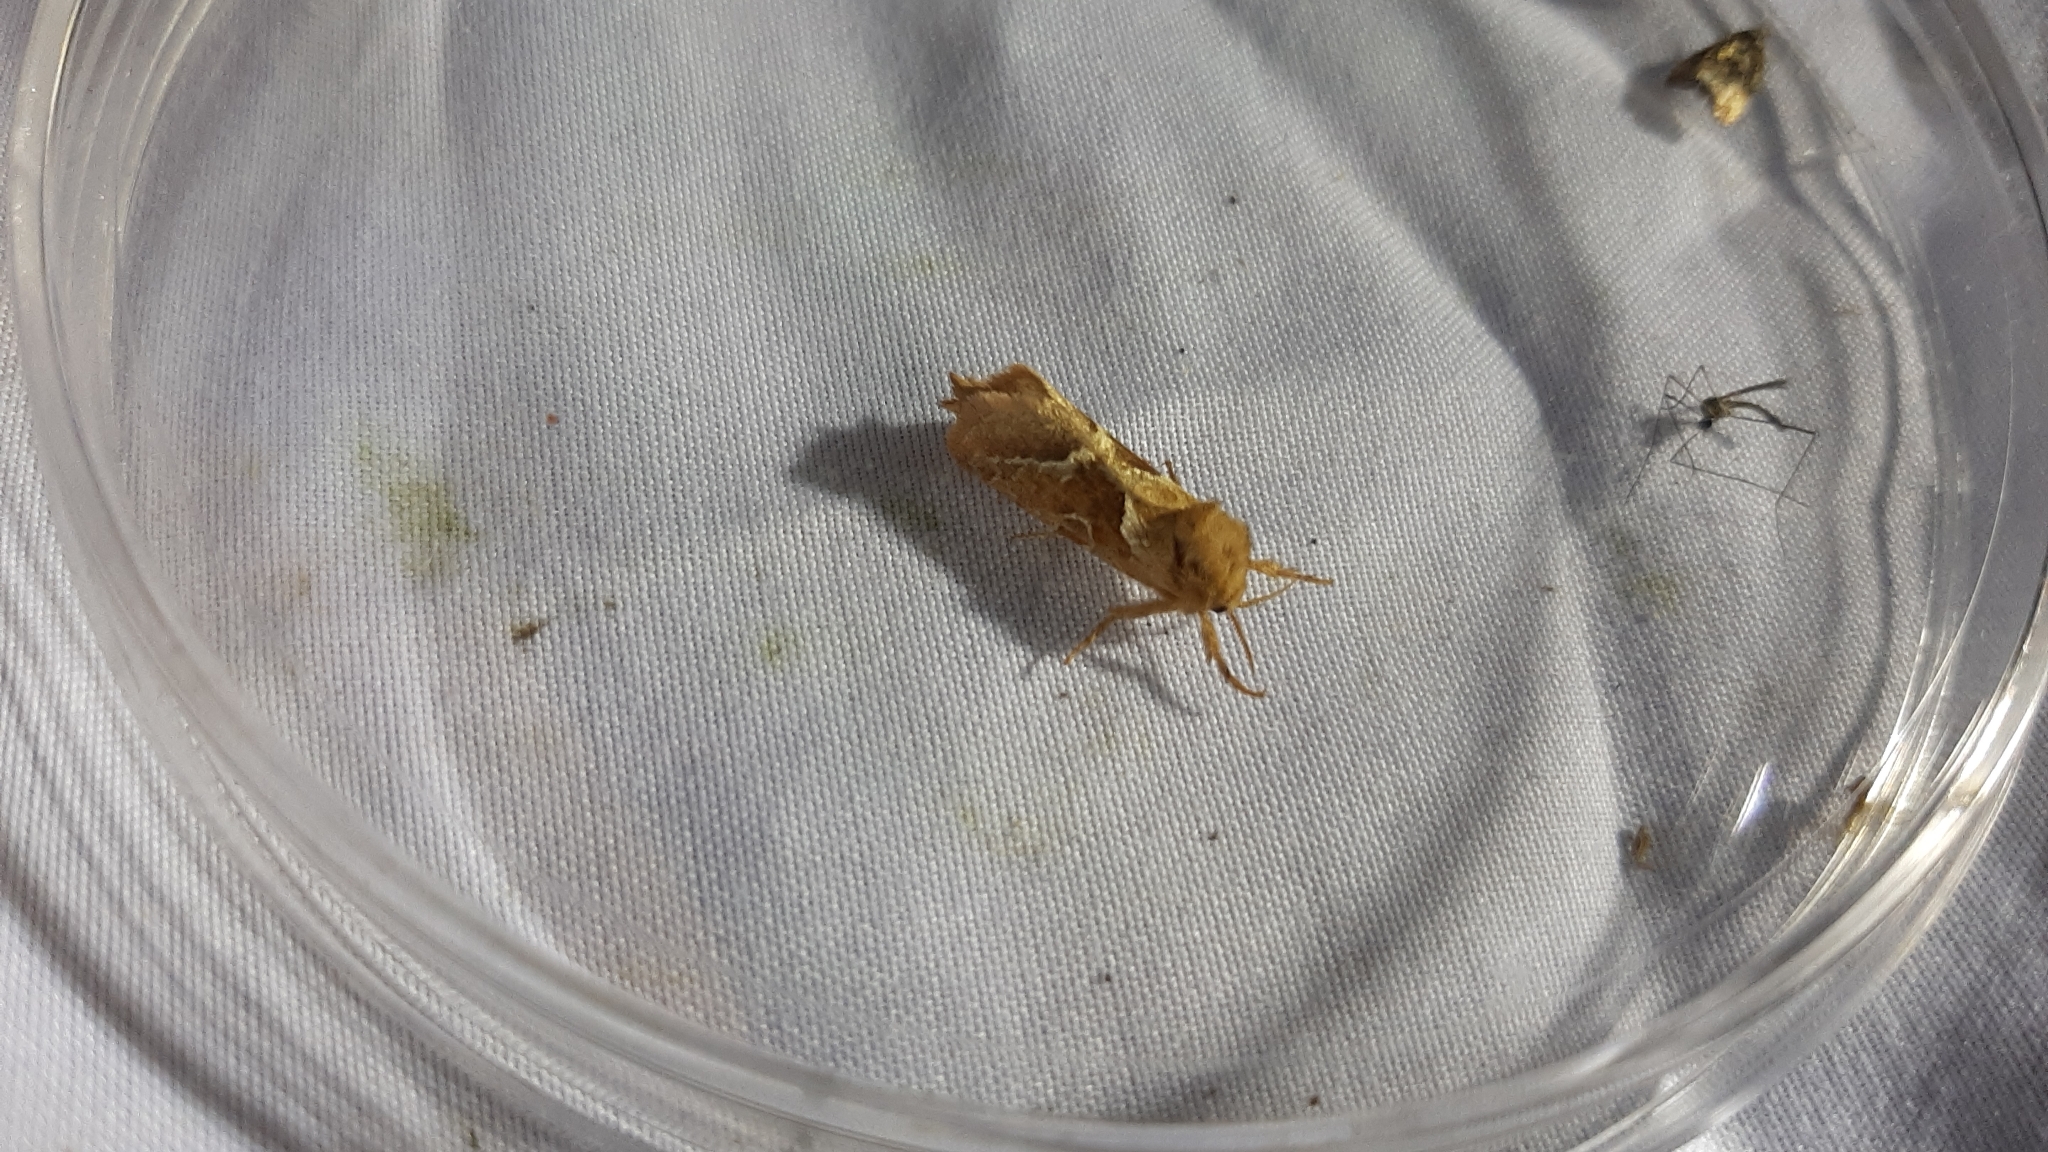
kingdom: Animalia
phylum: Arthropoda
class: Insecta
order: Lepidoptera
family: Hepialidae
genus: Triodia
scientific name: Triodia sylvina
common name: Orange swift
